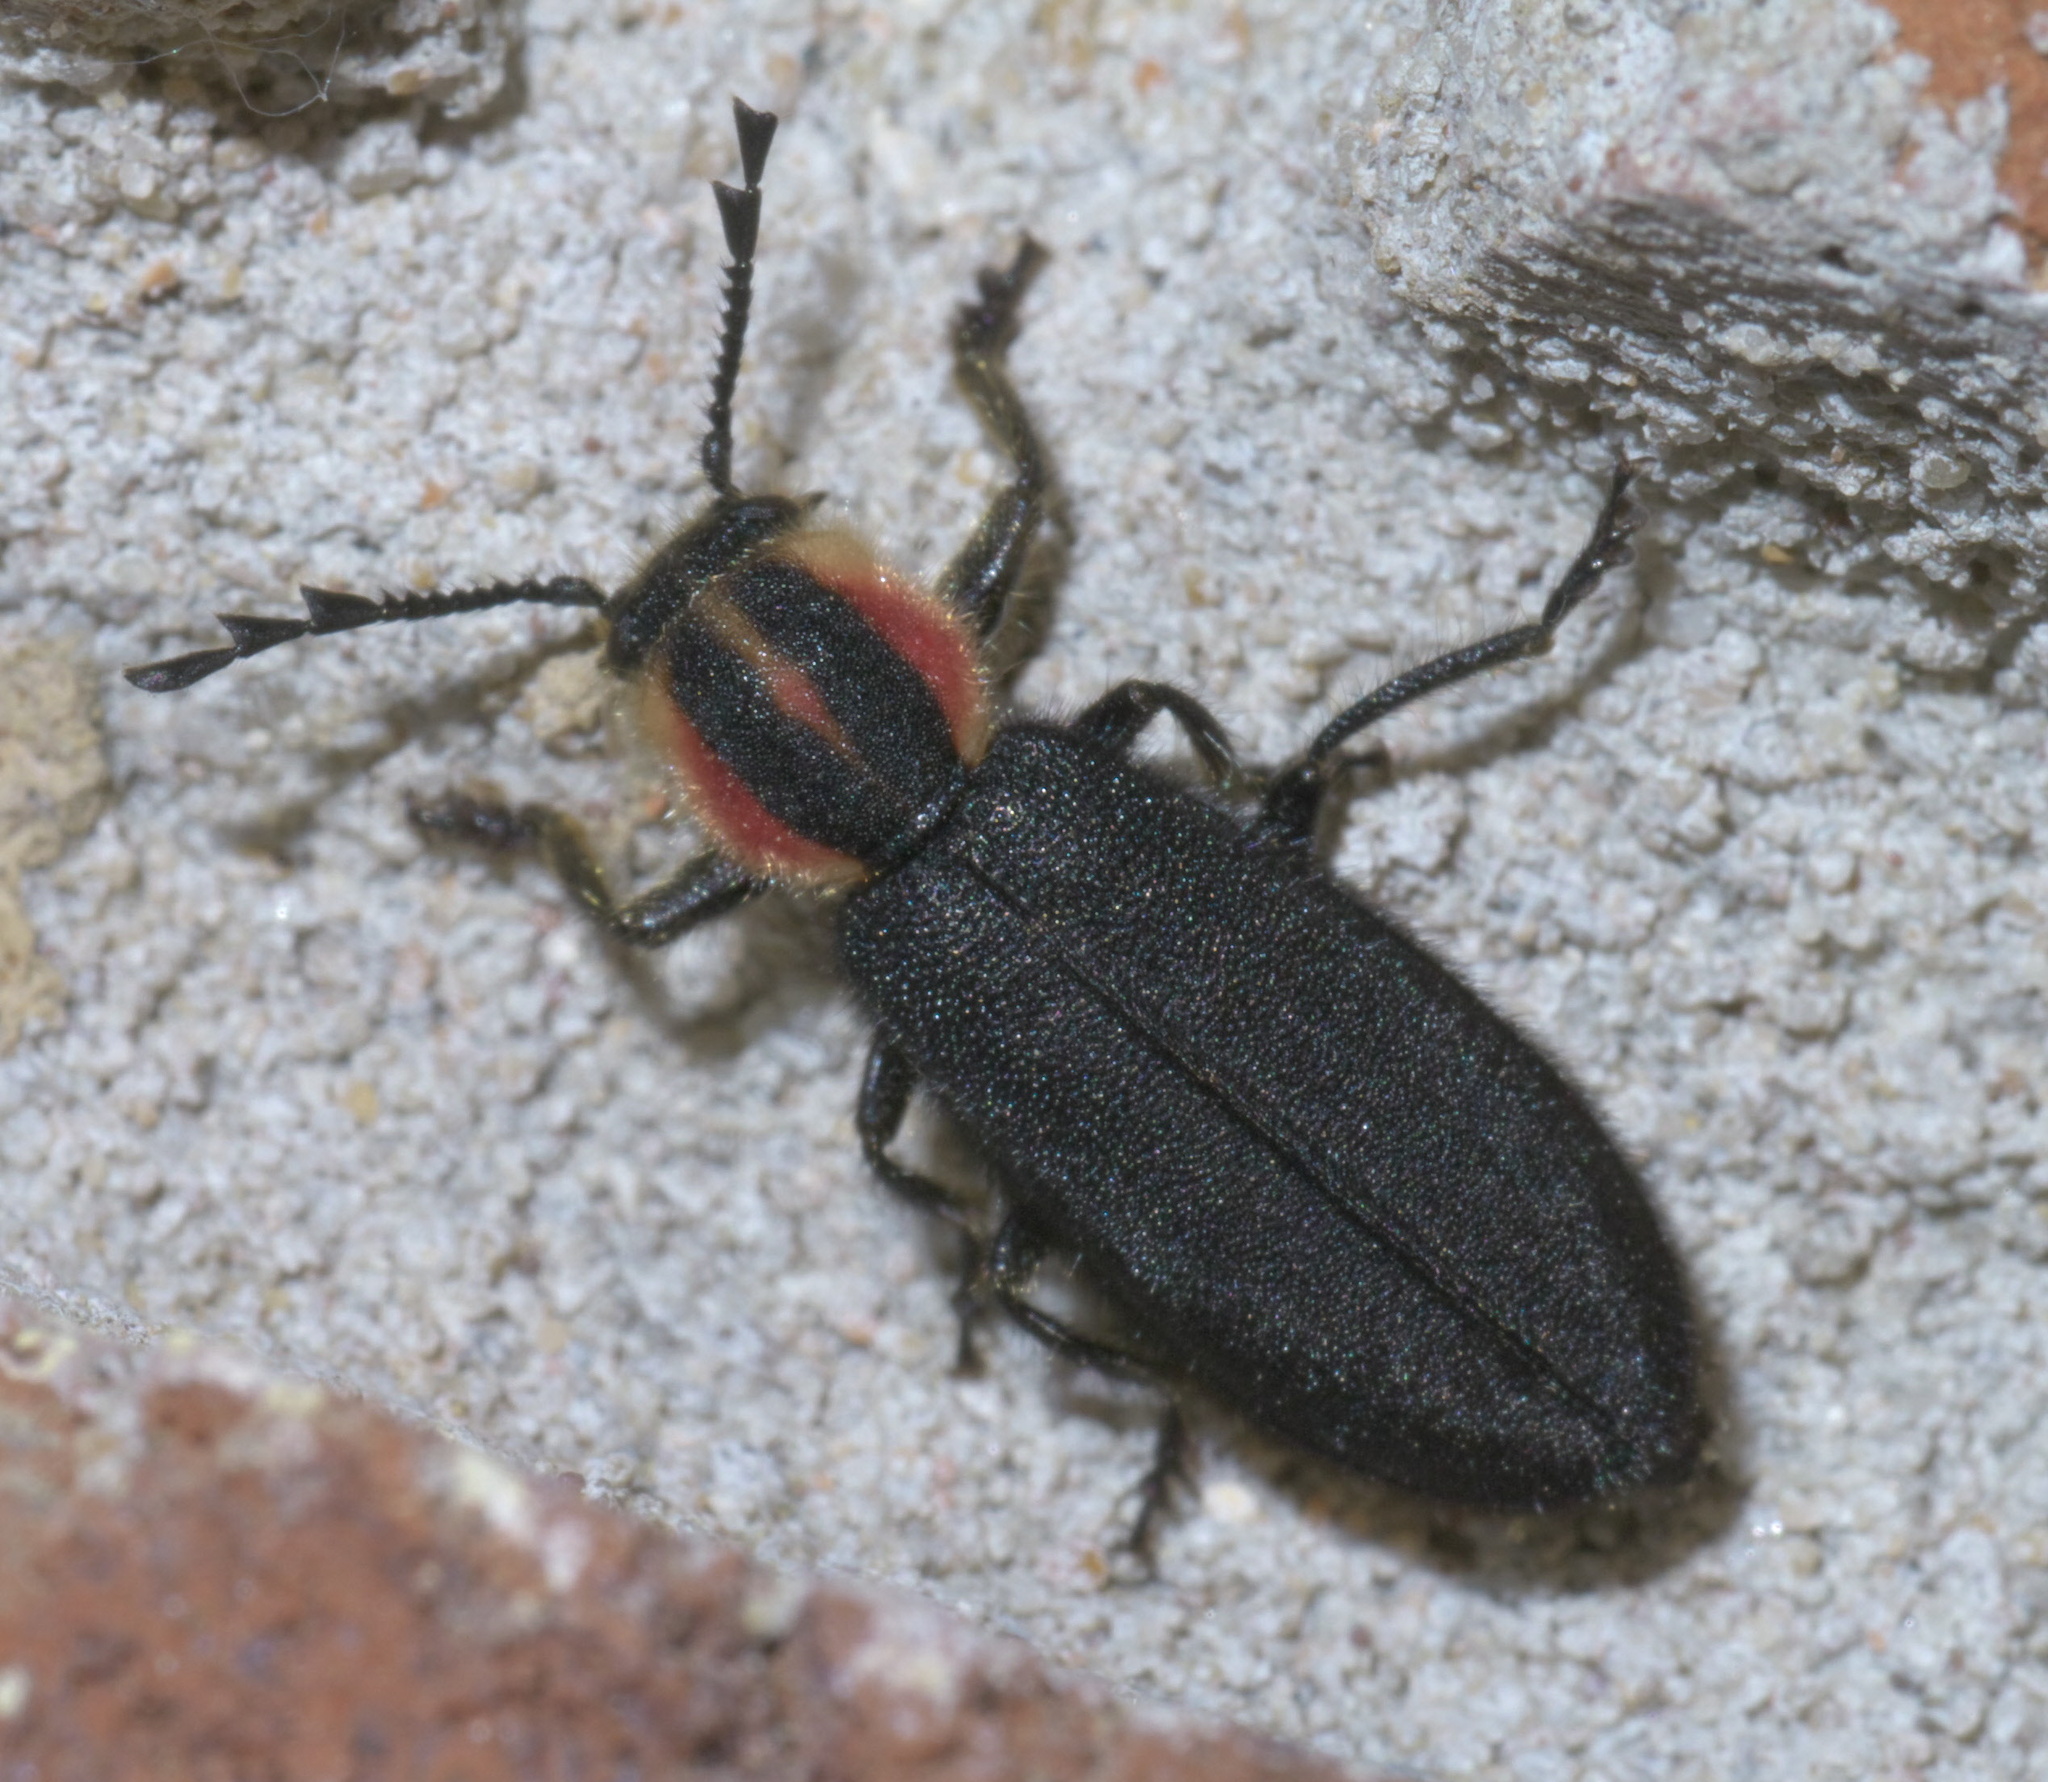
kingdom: Animalia
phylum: Arthropoda
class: Insecta
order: Coleoptera
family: Cleridae
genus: Chariessa
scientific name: Chariessa pilosa
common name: Pilose checkered beetle
